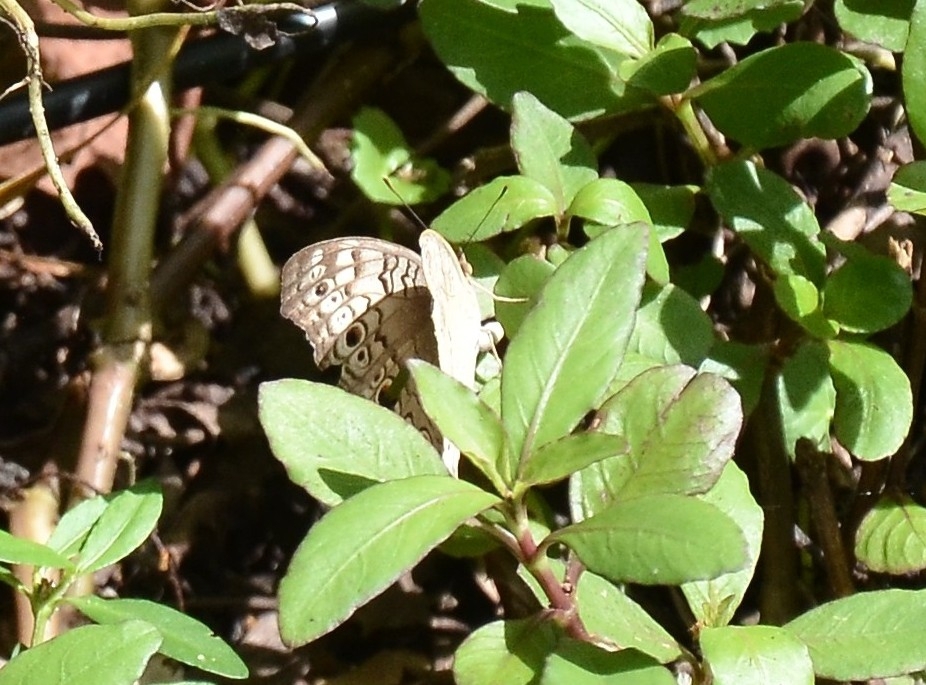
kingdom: Animalia
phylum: Arthropoda
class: Insecta
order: Lepidoptera
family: Nymphalidae
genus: Junonia
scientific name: Junonia atlites
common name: Grey pansy
